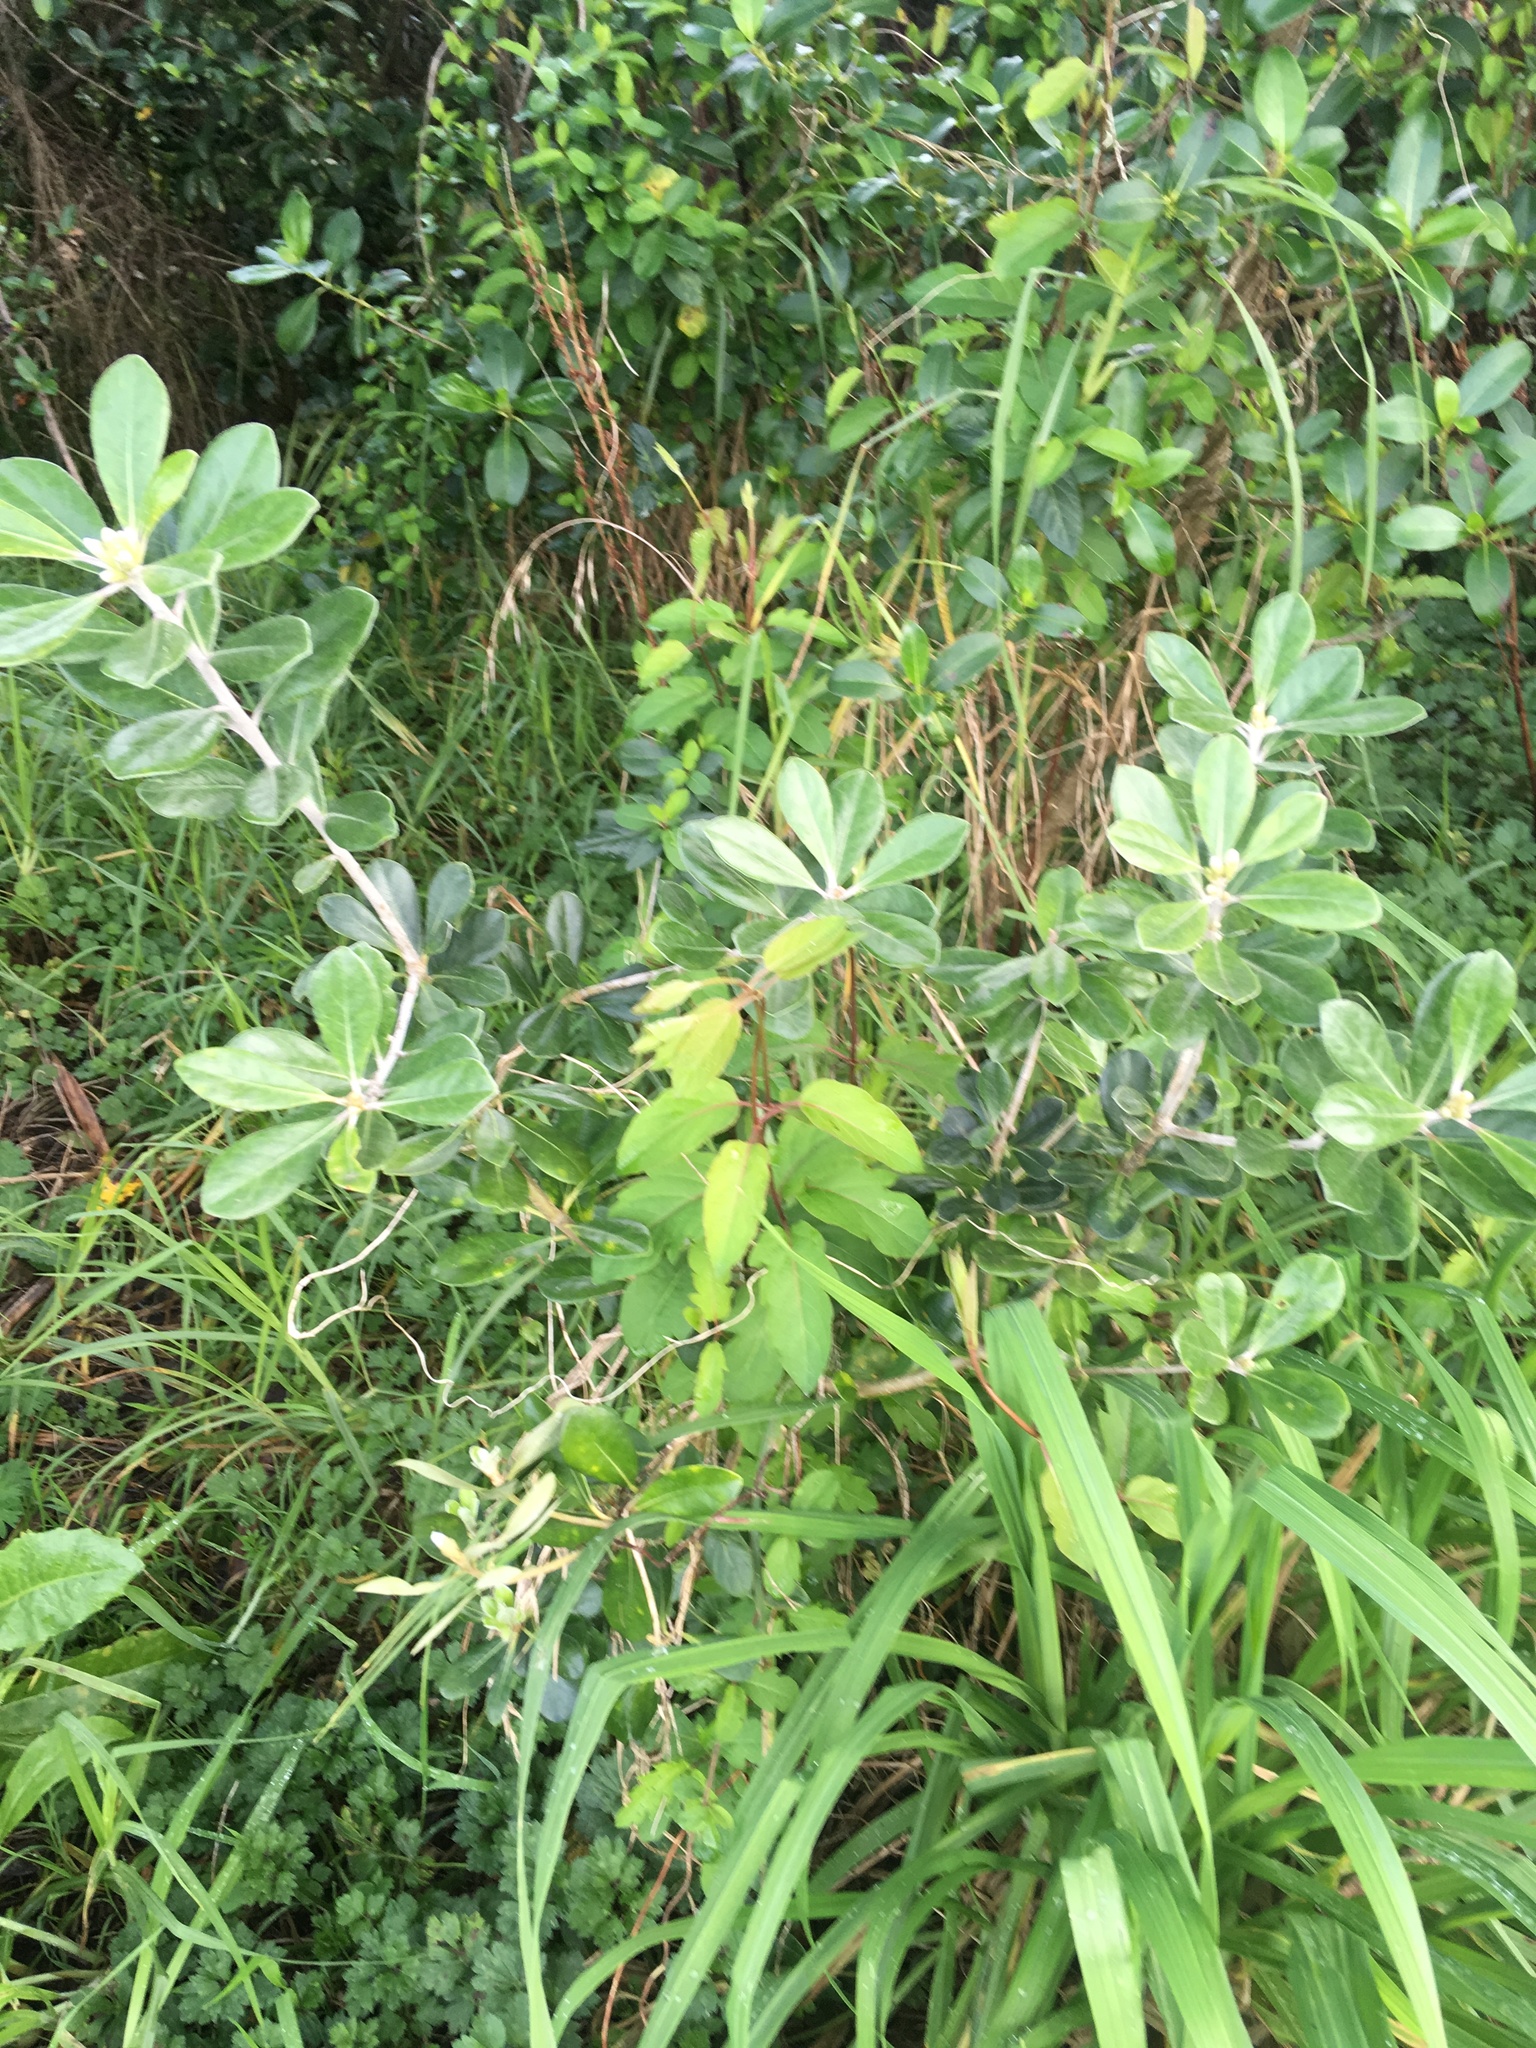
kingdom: Plantae
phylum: Tracheophyta
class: Magnoliopsida
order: Apiales
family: Pittosporaceae
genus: Pittosporum
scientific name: Pittosporum crassifolium
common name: Karo
